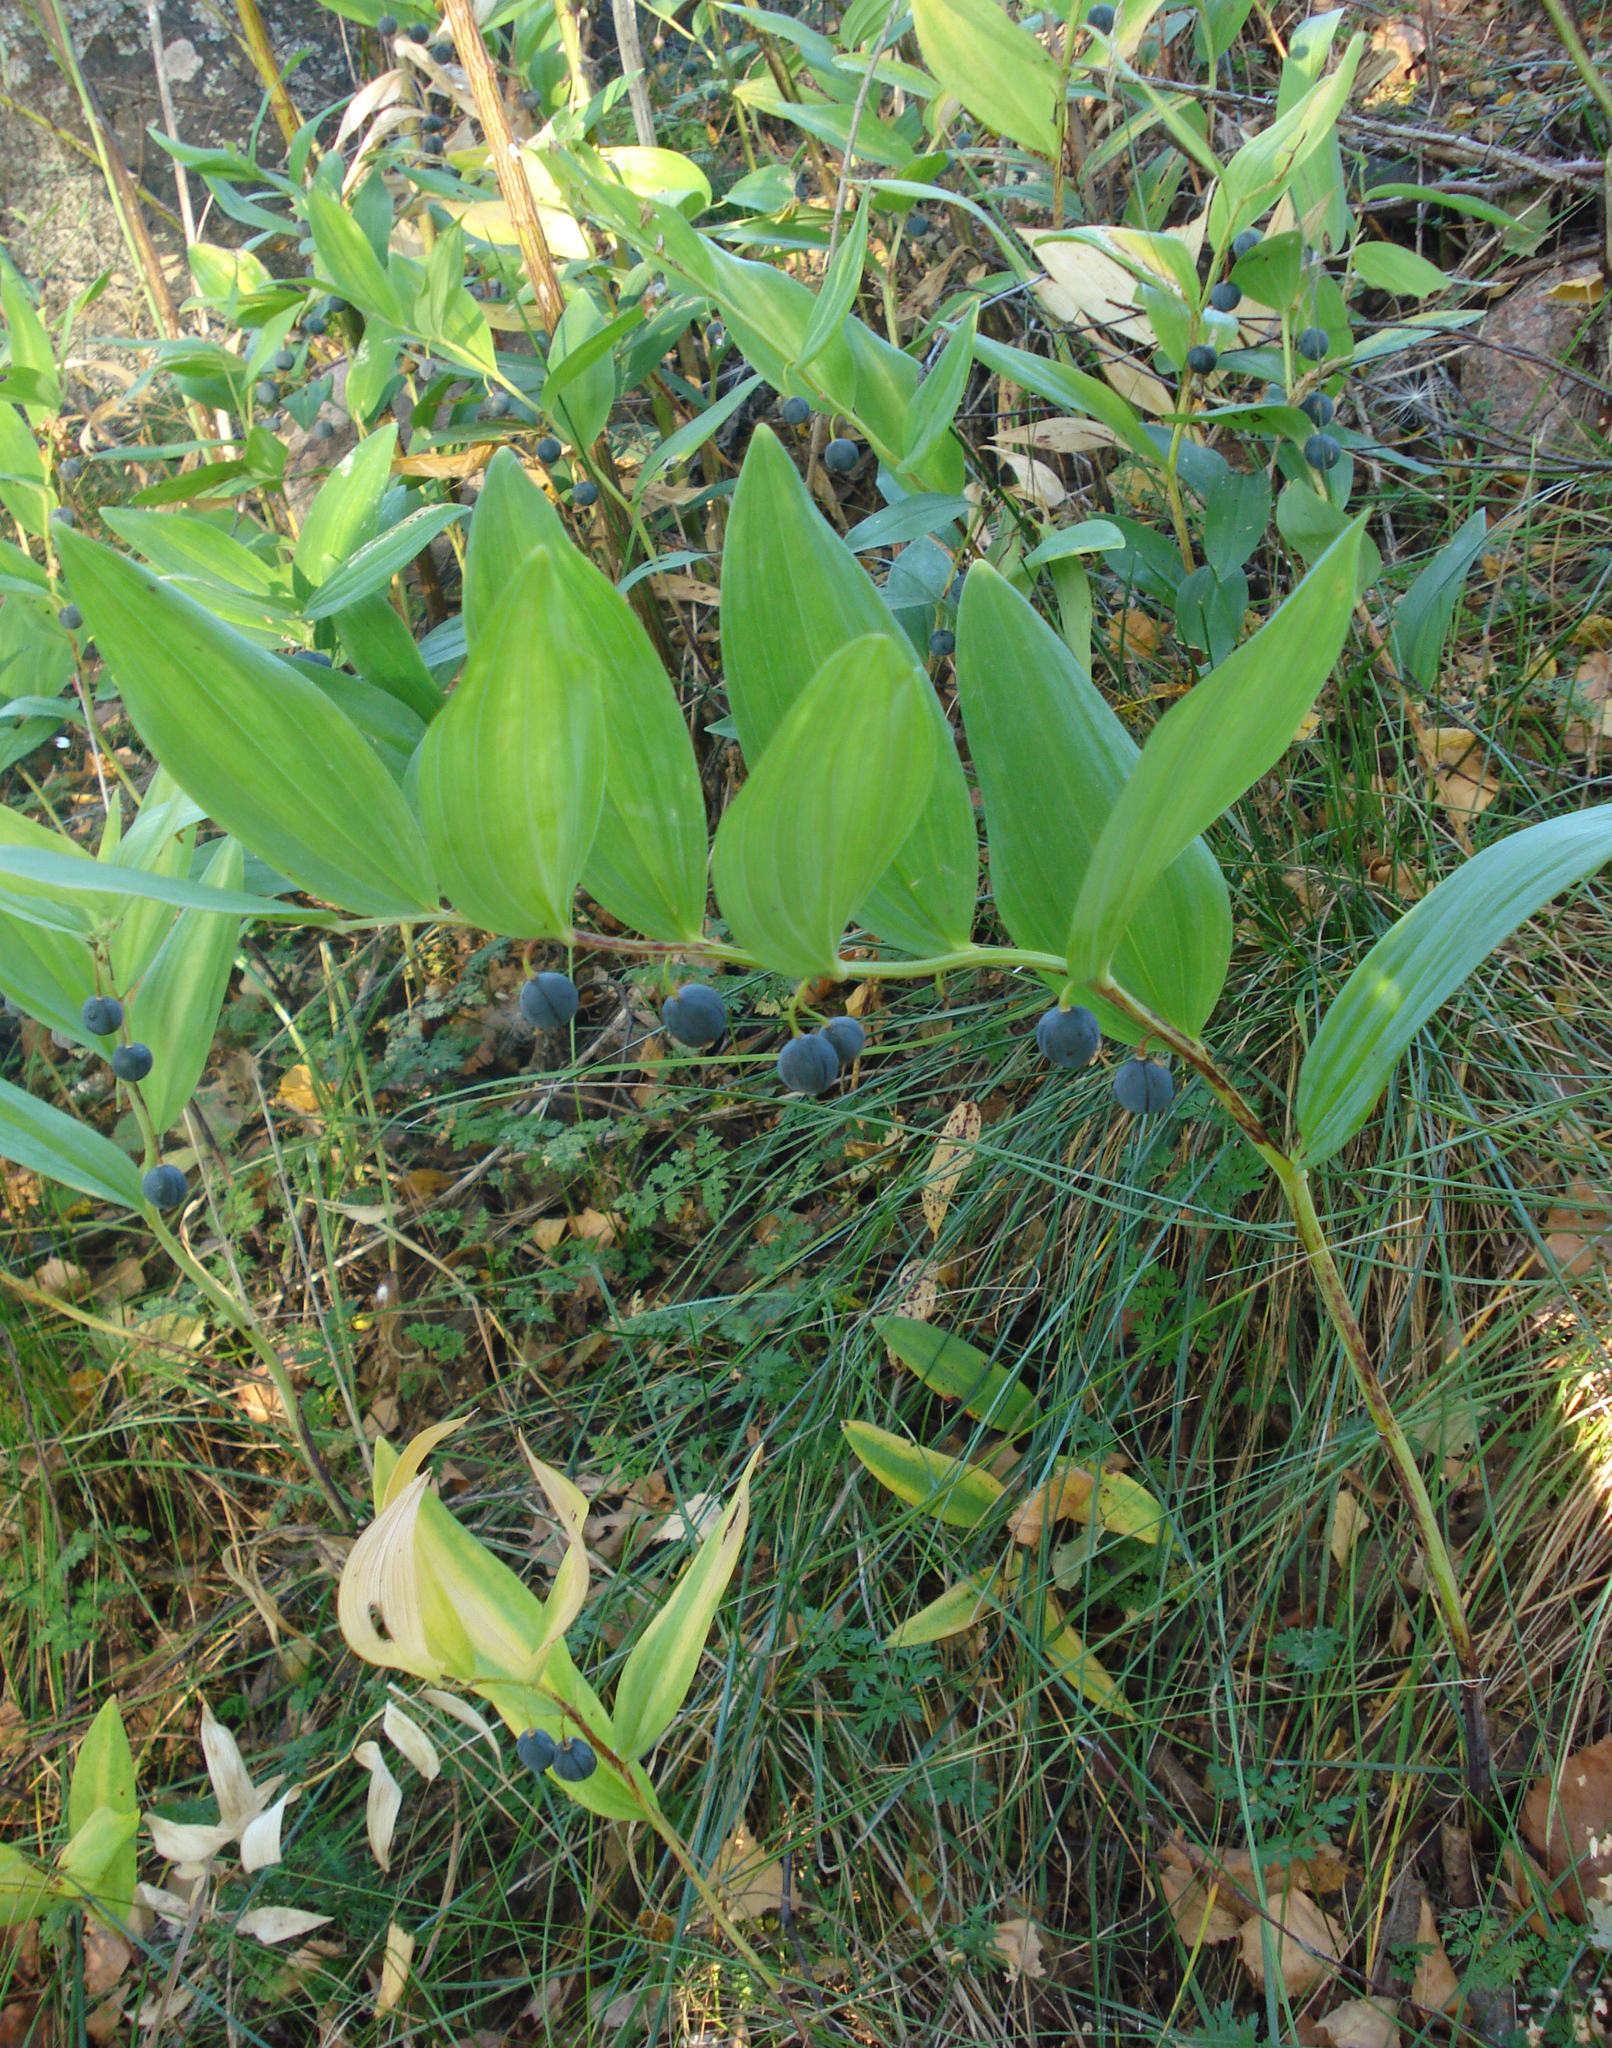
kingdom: Plantae
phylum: Tracheophyta
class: Liliopsida
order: Asparagales
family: Asparagaceae
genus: Polygonatum
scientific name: Polygonatum odoratum
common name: Angular solomon's-seal
